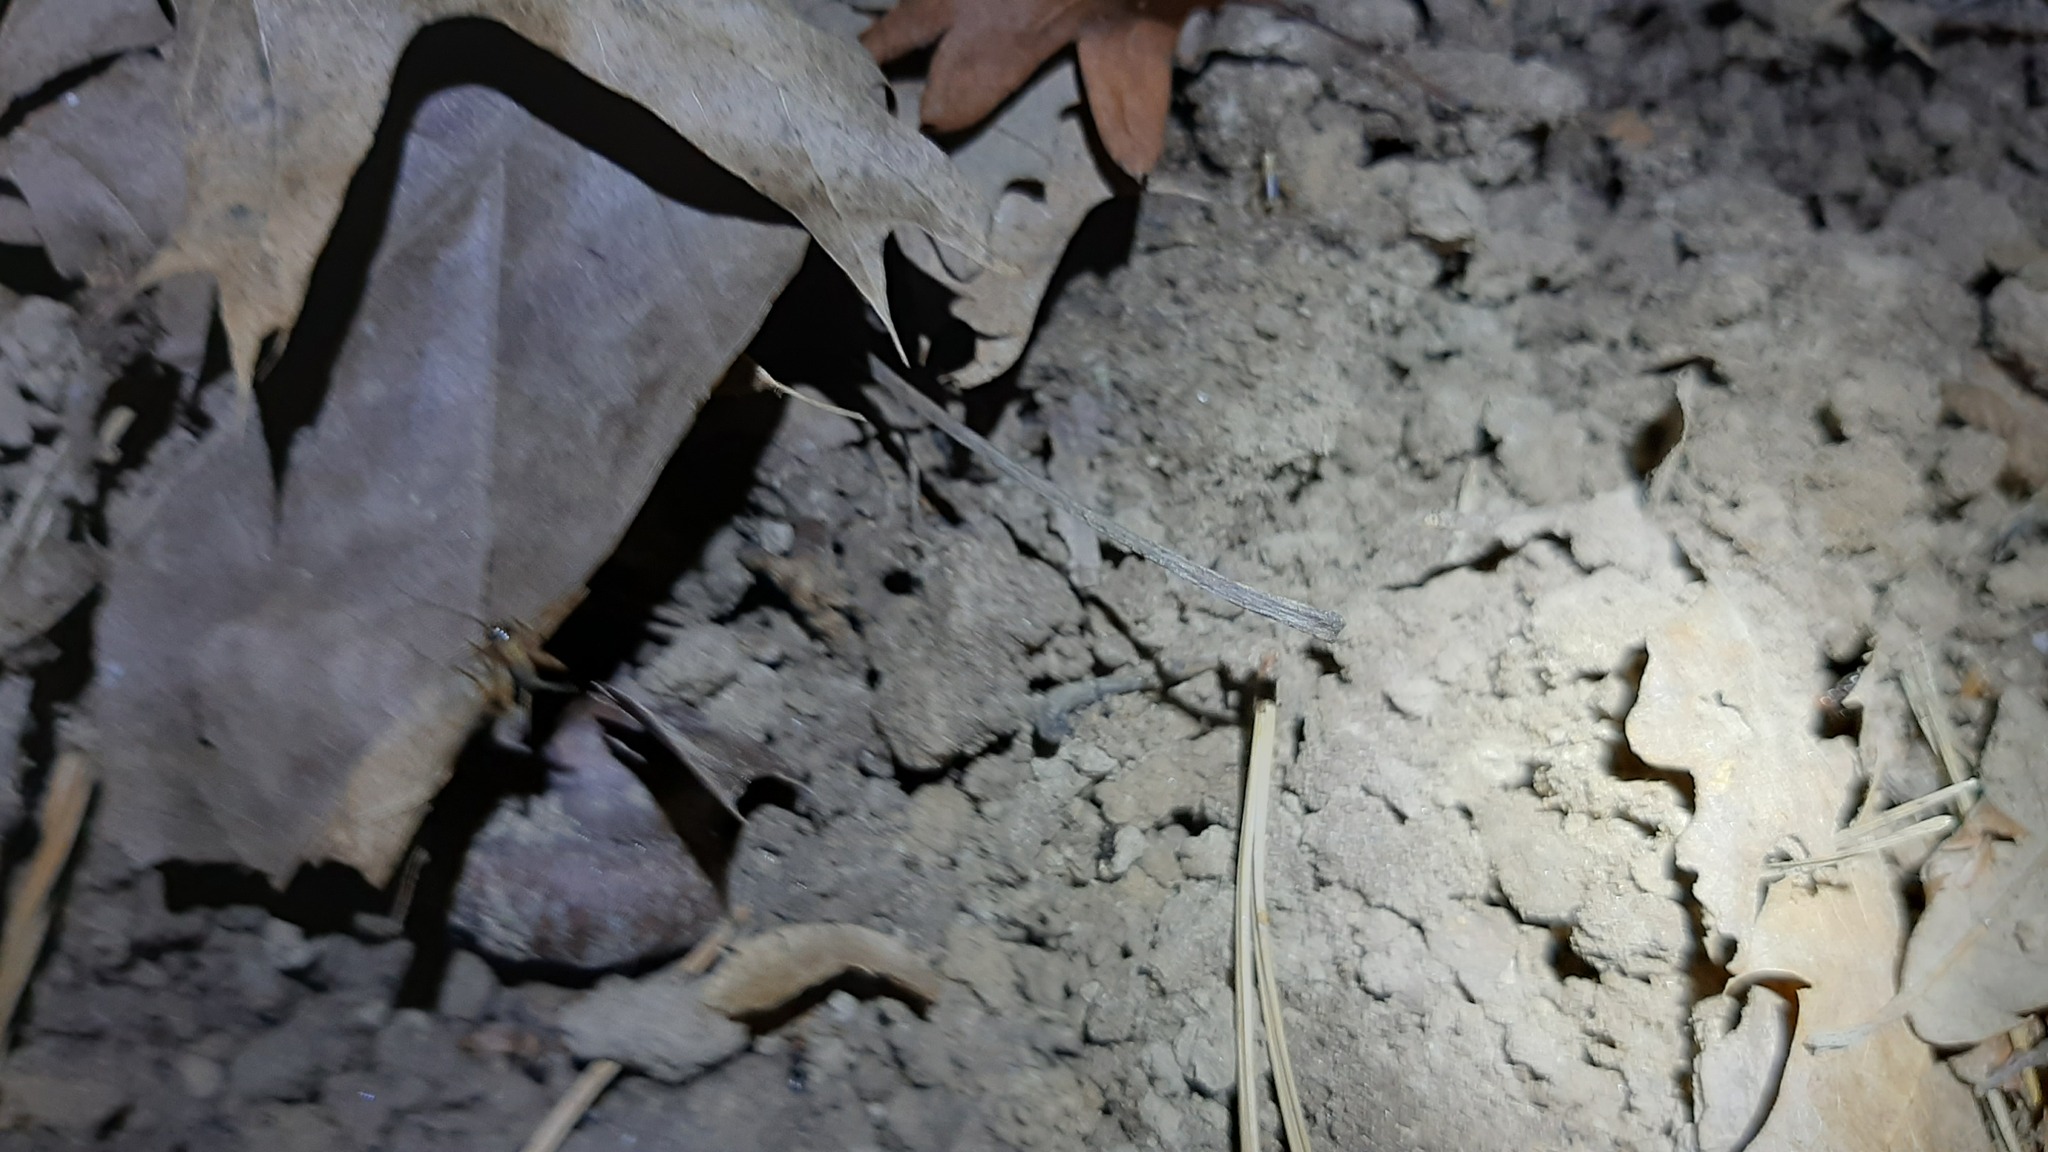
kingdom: Animalia
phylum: Arthropoda
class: Insecta
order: Orthoptera
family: Trigonidiidae
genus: Nemobius
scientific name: Nemobius sylvestris
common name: Wood-cricket
